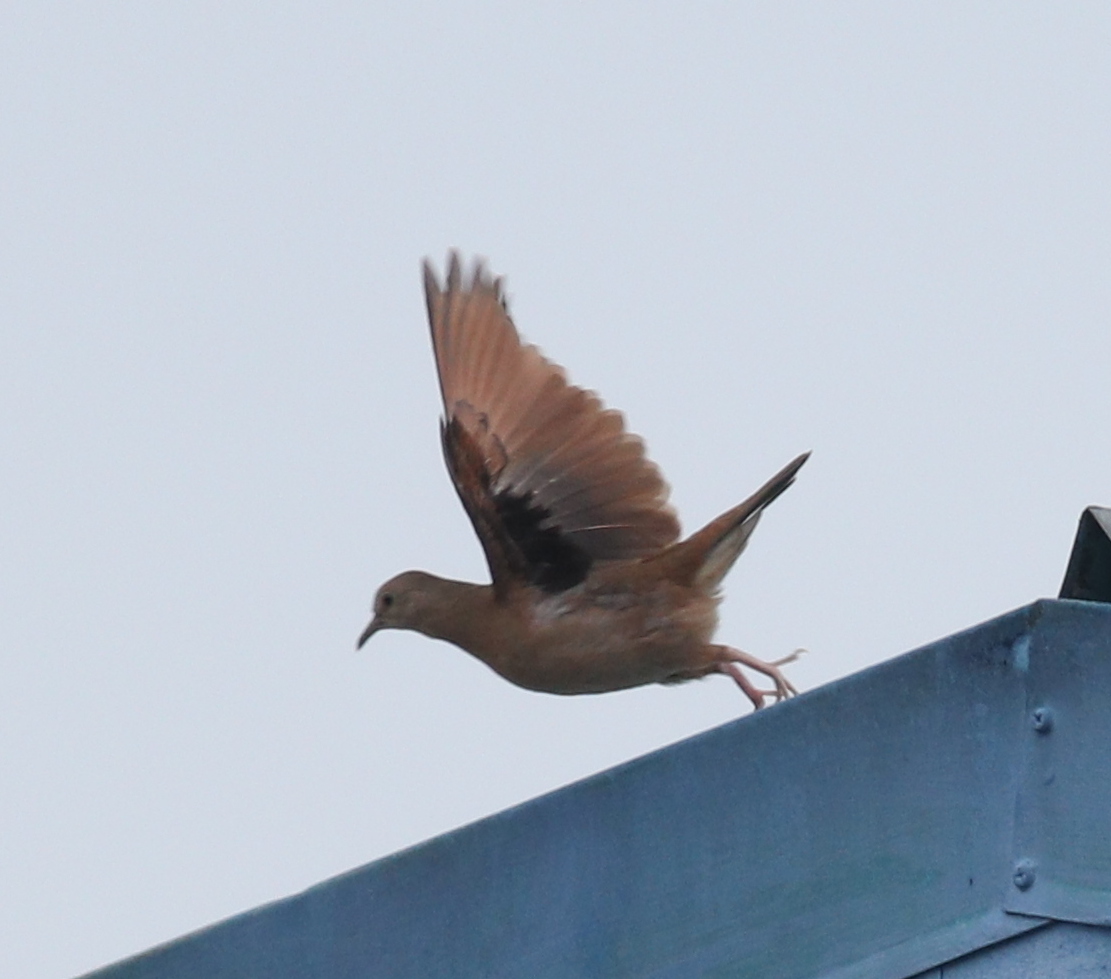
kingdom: Animalia
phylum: Chordata
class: Aves
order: Columbiformes
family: Columbidae
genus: Columbina
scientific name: Columbina talpacoti
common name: Ruddy ground dove
